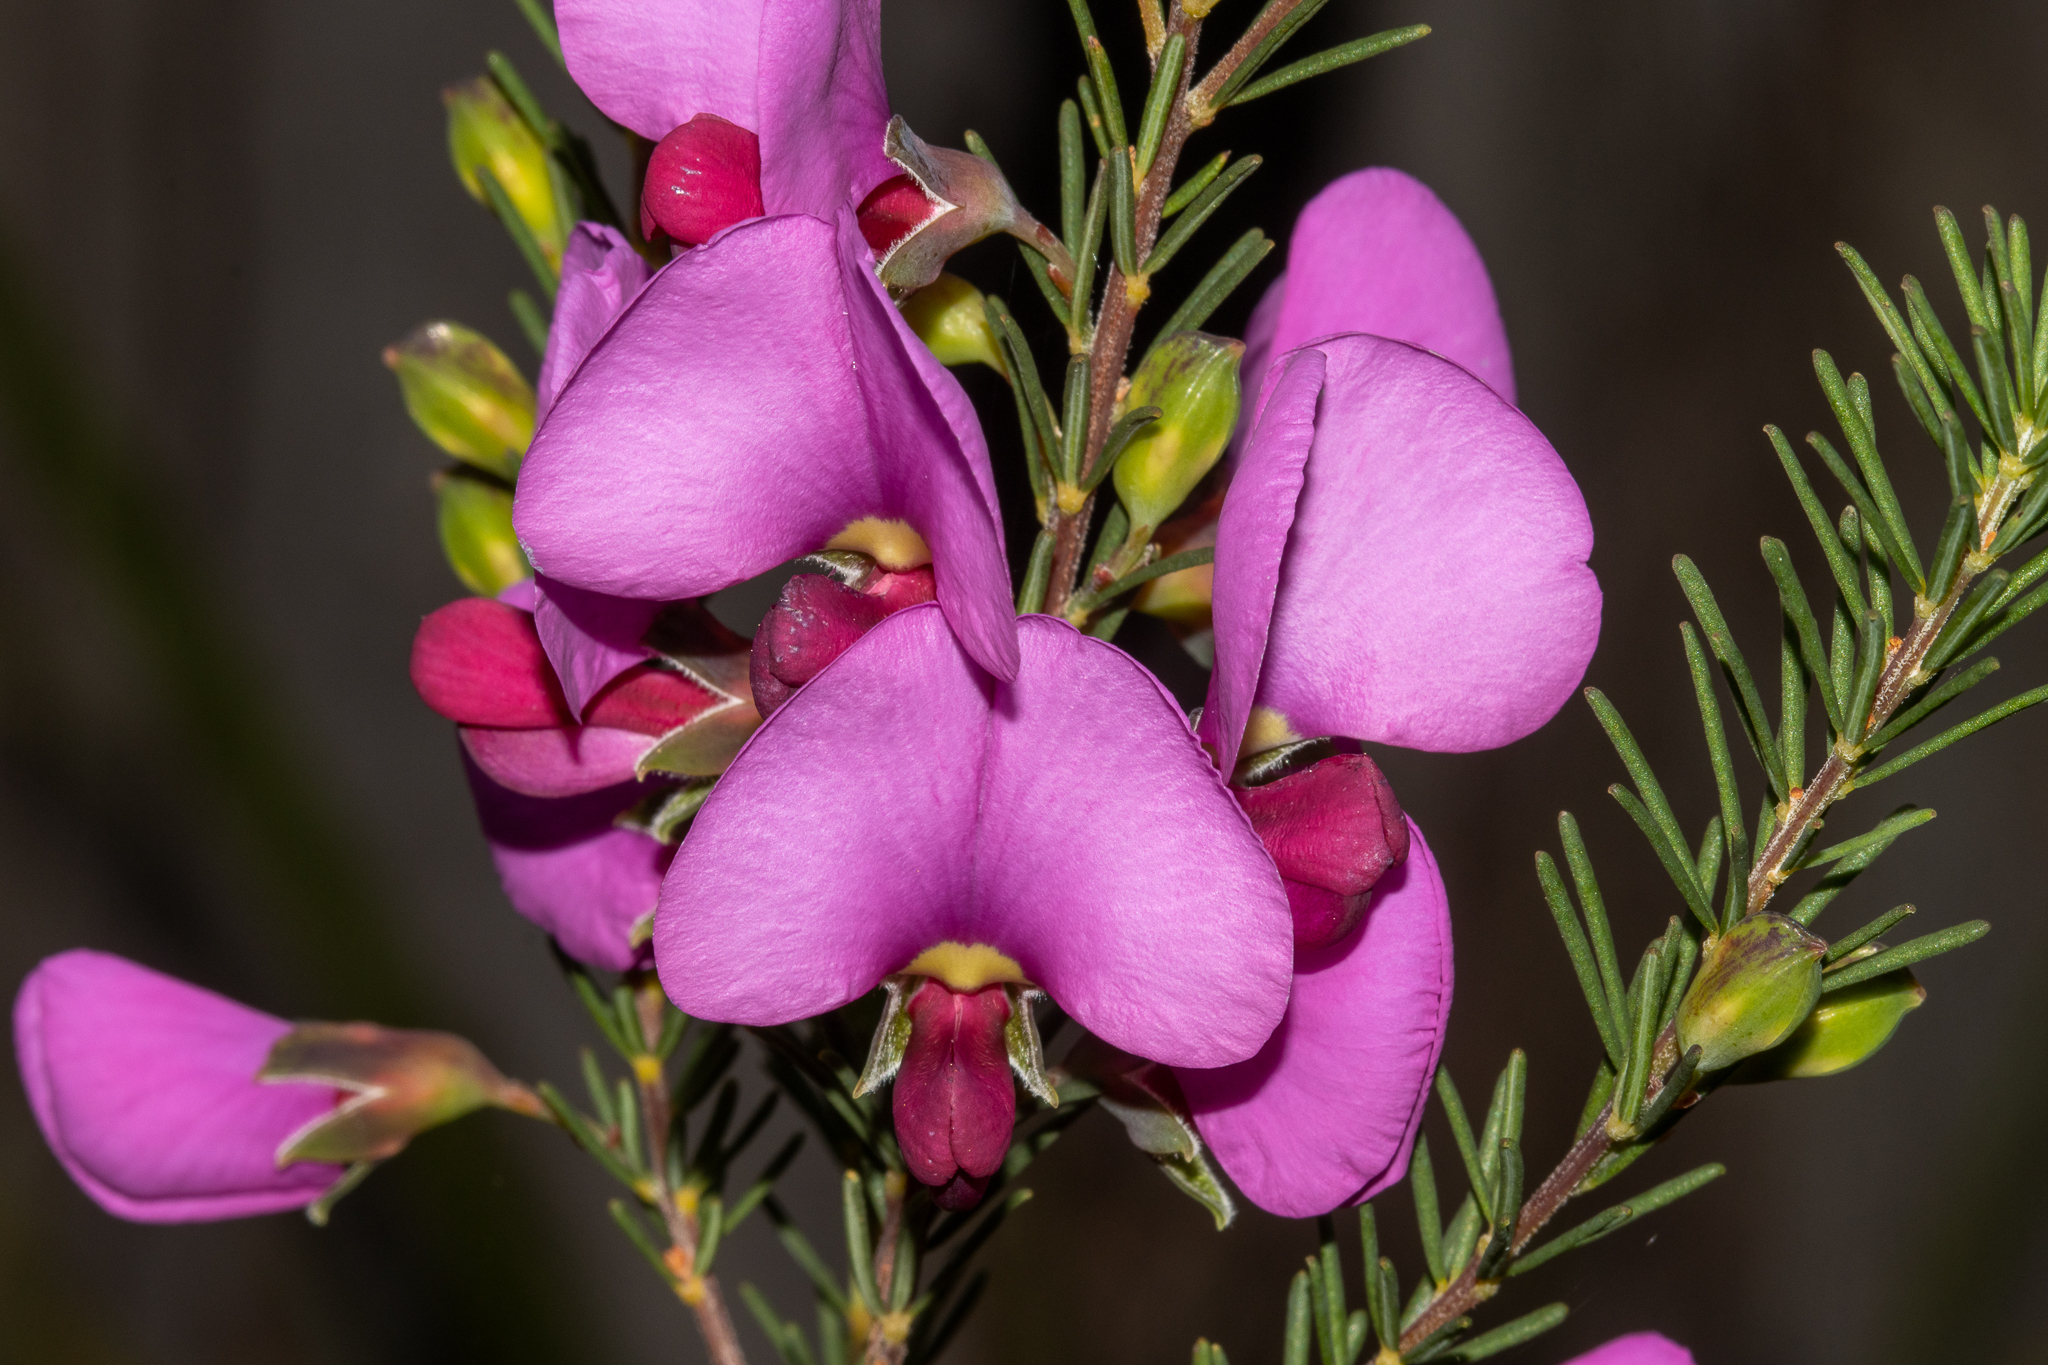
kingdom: Plantae
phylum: Tracheophyta
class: Magnoliopsida
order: Fabales
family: Fabaceae
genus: Gompholobium
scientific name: Gompholobium scabrum
